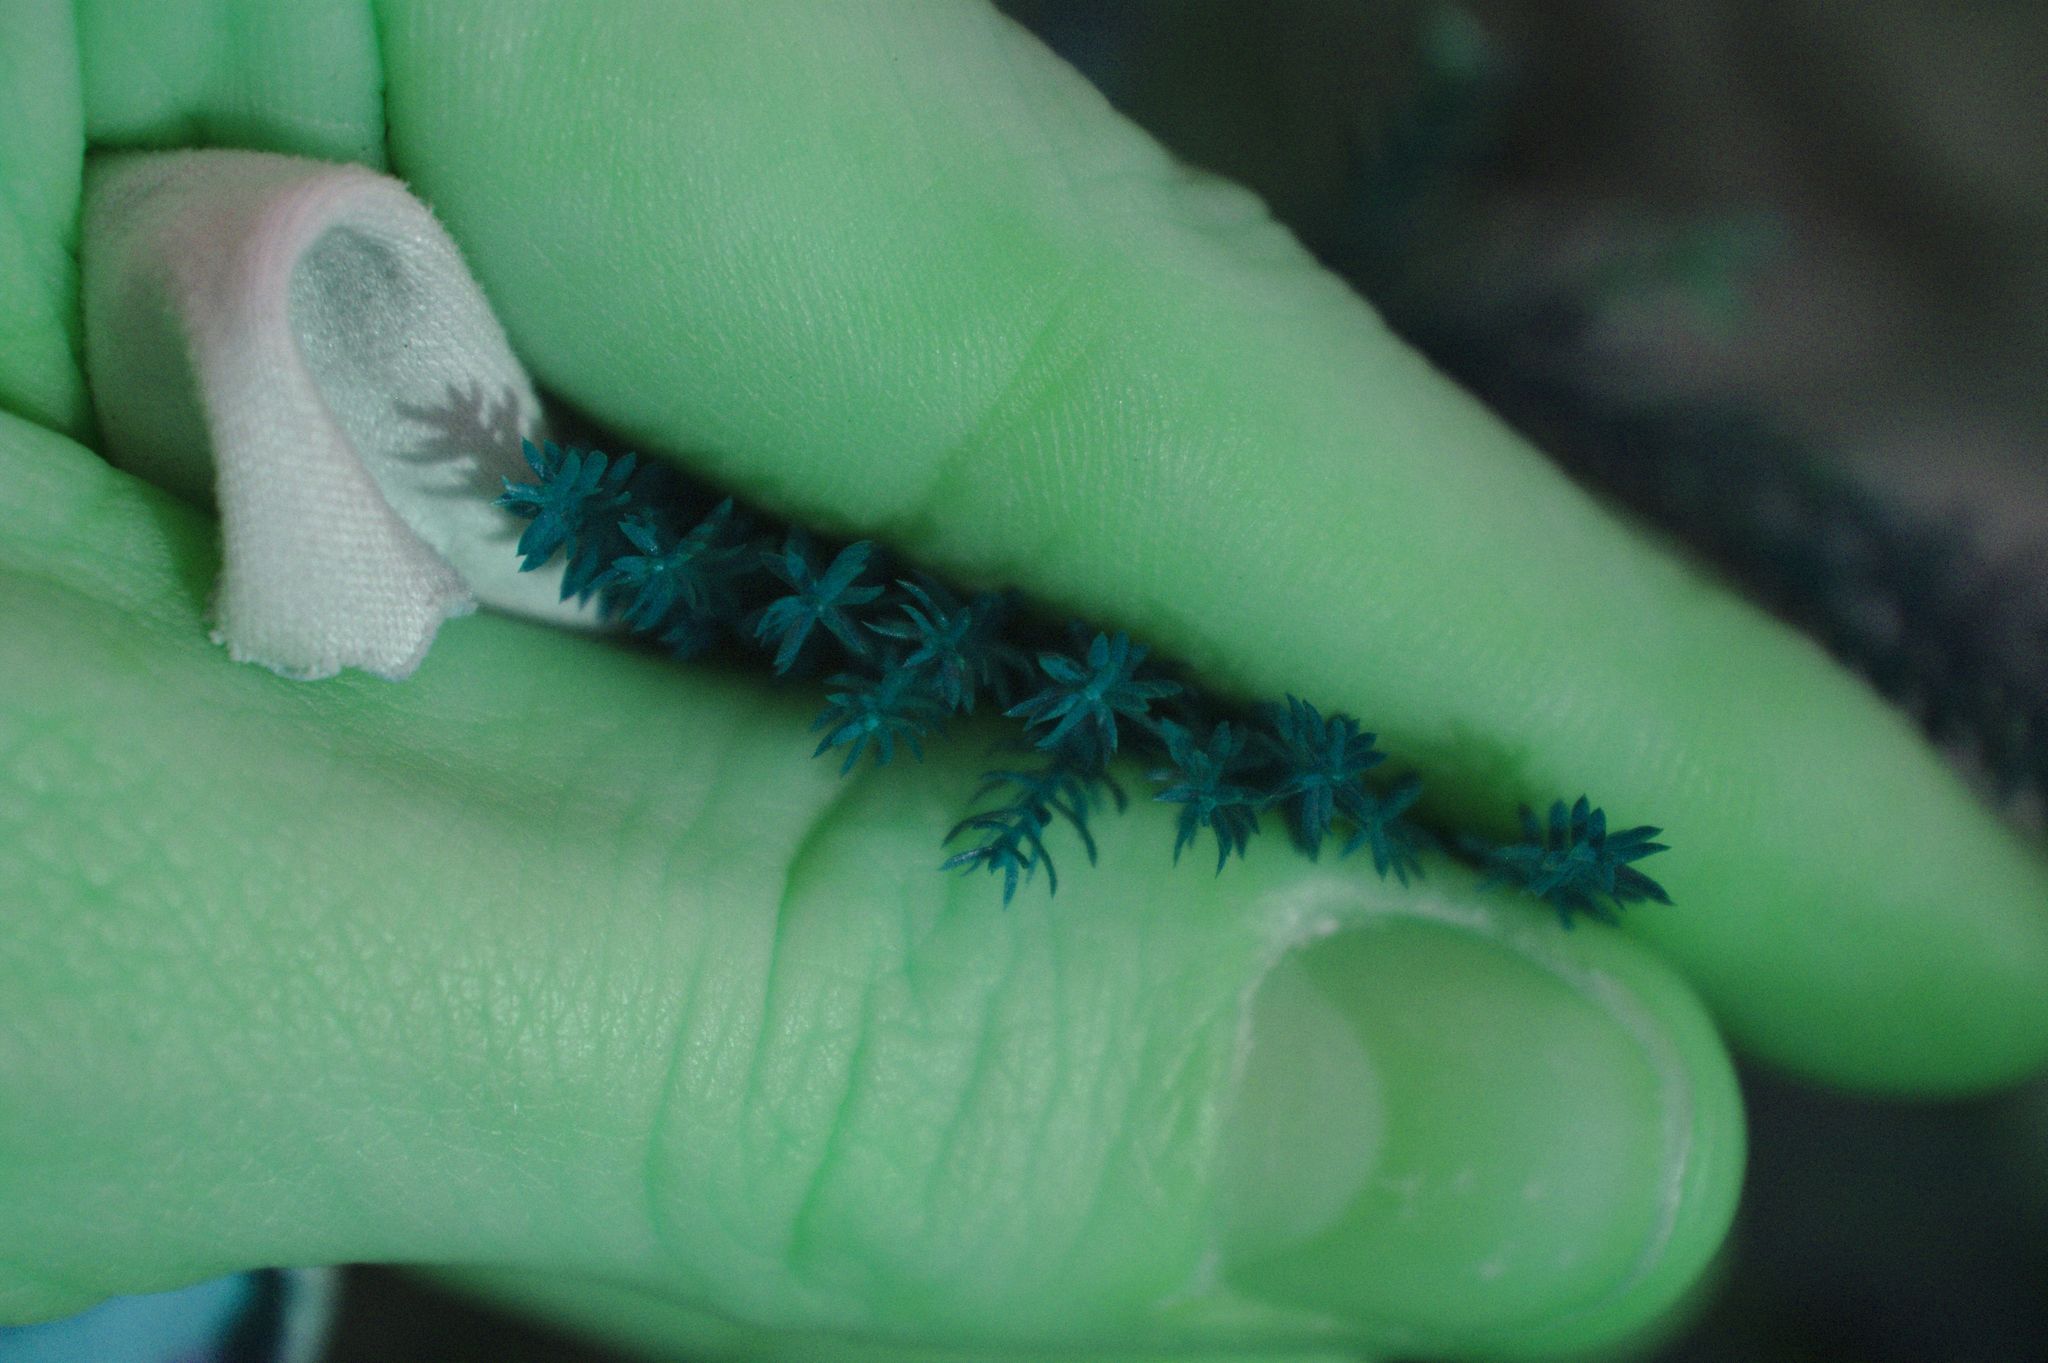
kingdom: Plantae
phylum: Tracheophyta
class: Lycopodiopsida
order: Lycopodiales
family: Lycopodiaceae
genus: Dendrolycopodium
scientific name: Dendrolycopodium dendroideum
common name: Northern tree-clubmoss
